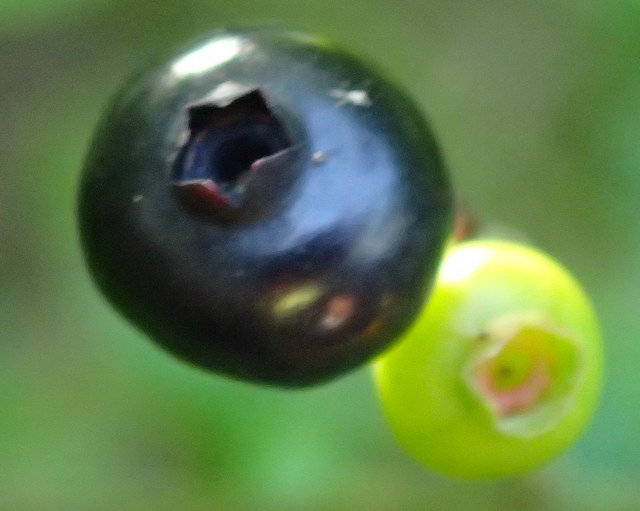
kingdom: Plantae
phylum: Tracheophyta
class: Magnoliopsida
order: Ericales
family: Ericaceae
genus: Vaccinium
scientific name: Vaccinium corymbosum
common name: Blueberry
